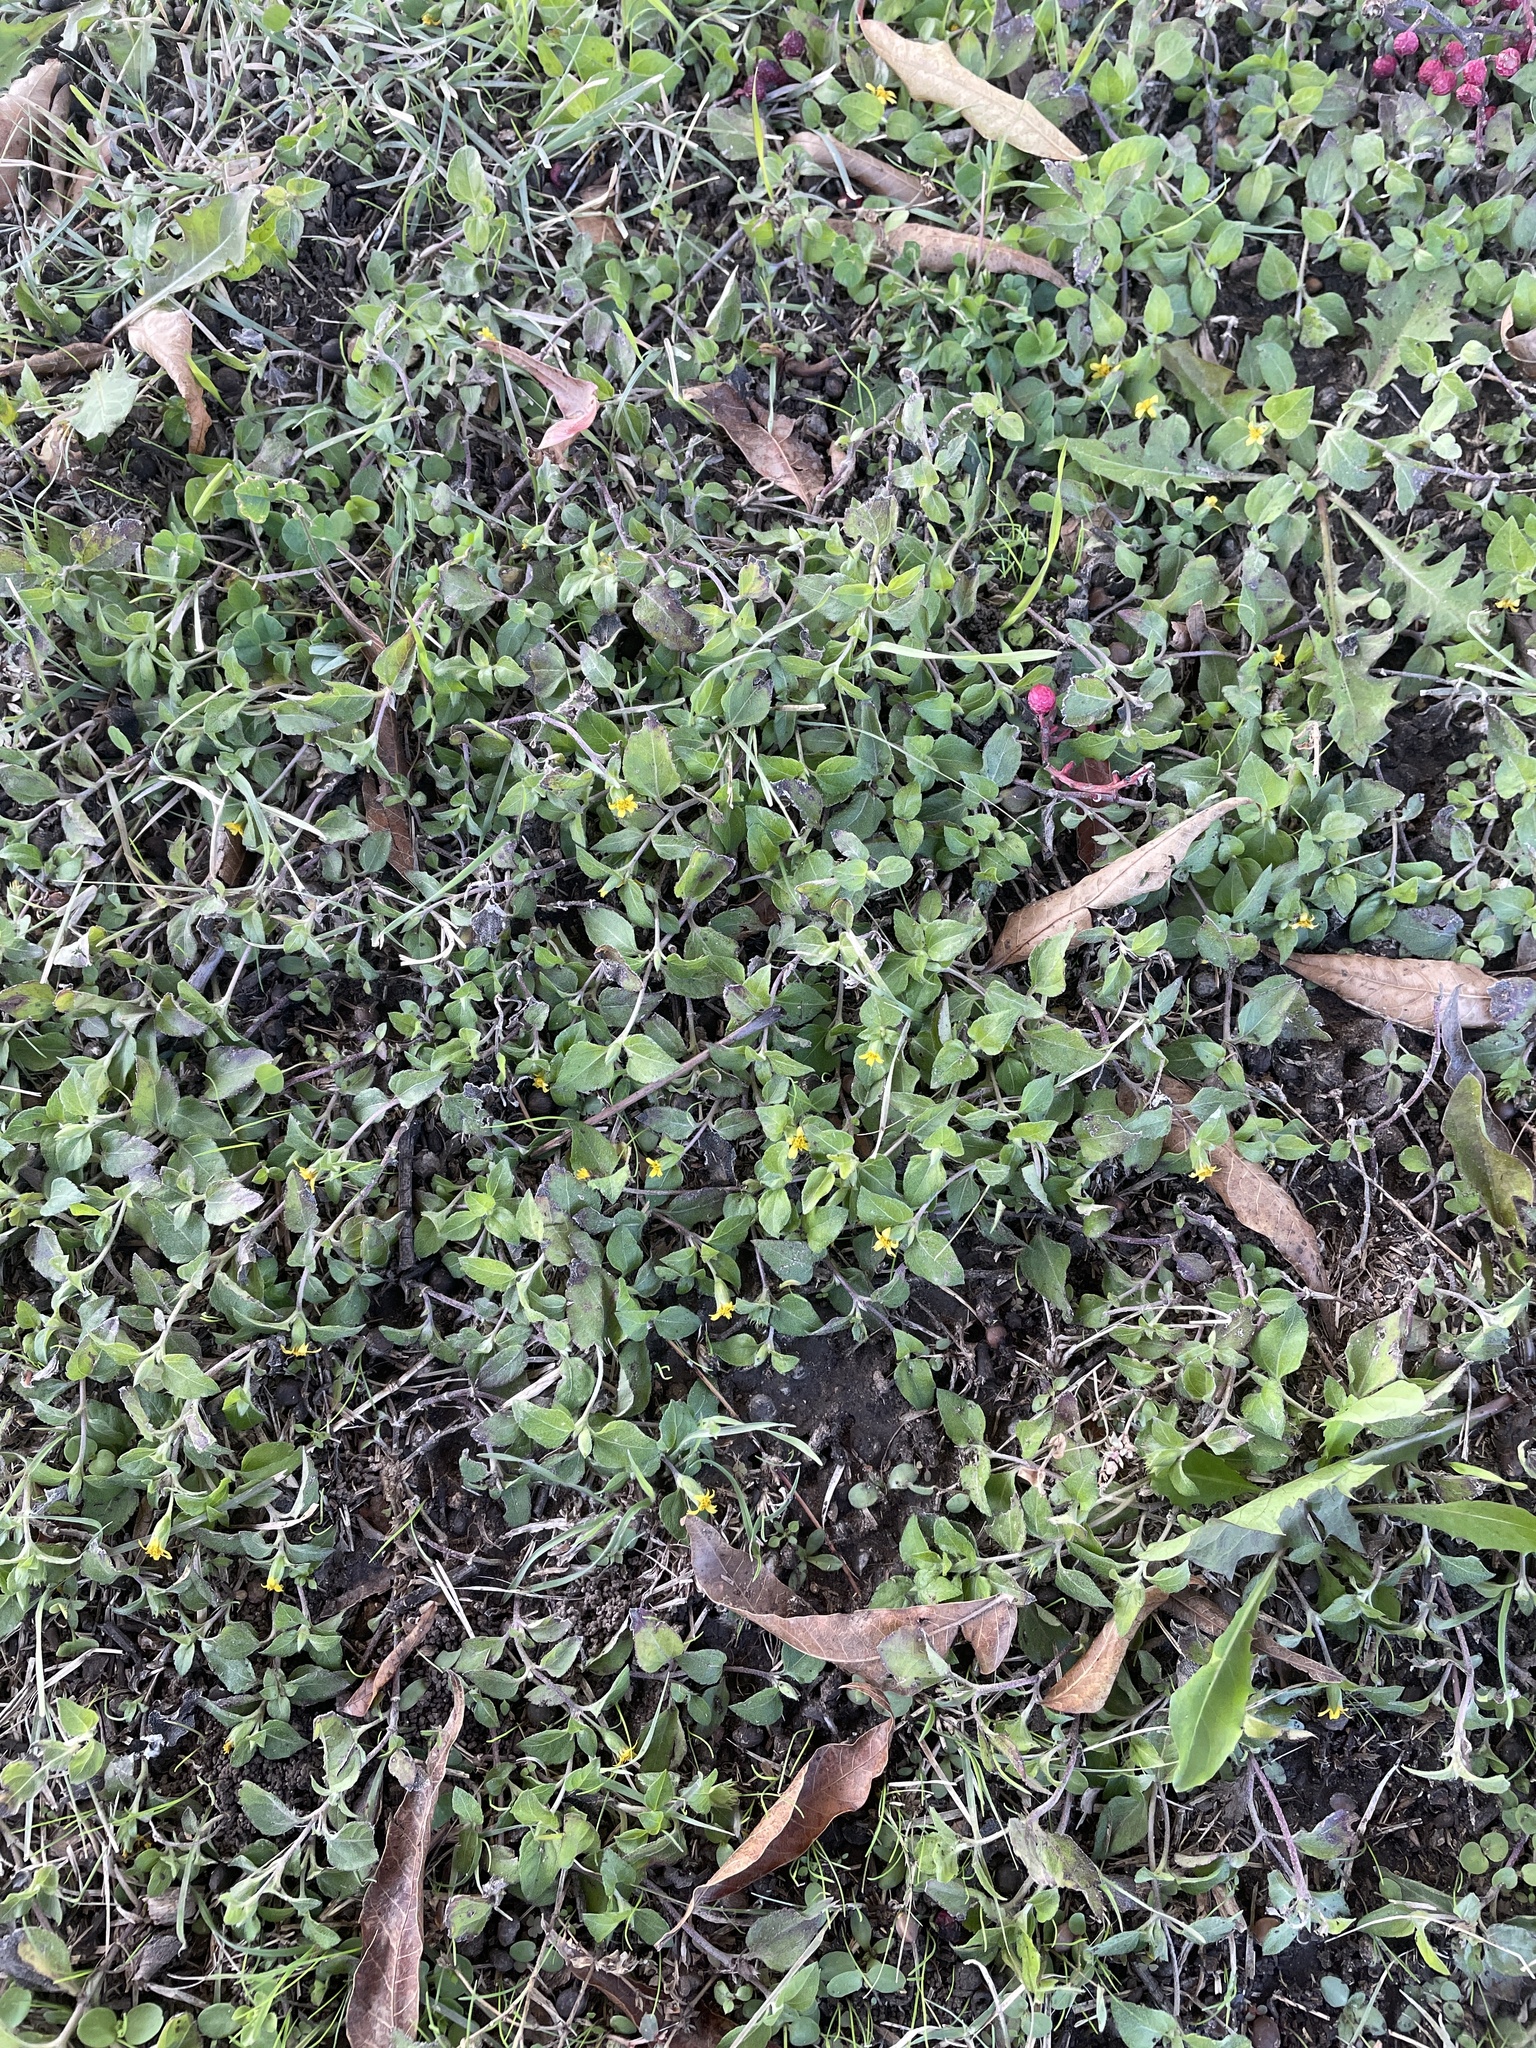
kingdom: Plantae
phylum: Tracheophyta
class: Magnoliopsida
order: Asterales
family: Asteraceae
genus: Calyptocarpus
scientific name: Calyptocarpus vialis
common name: Straggler daisy
